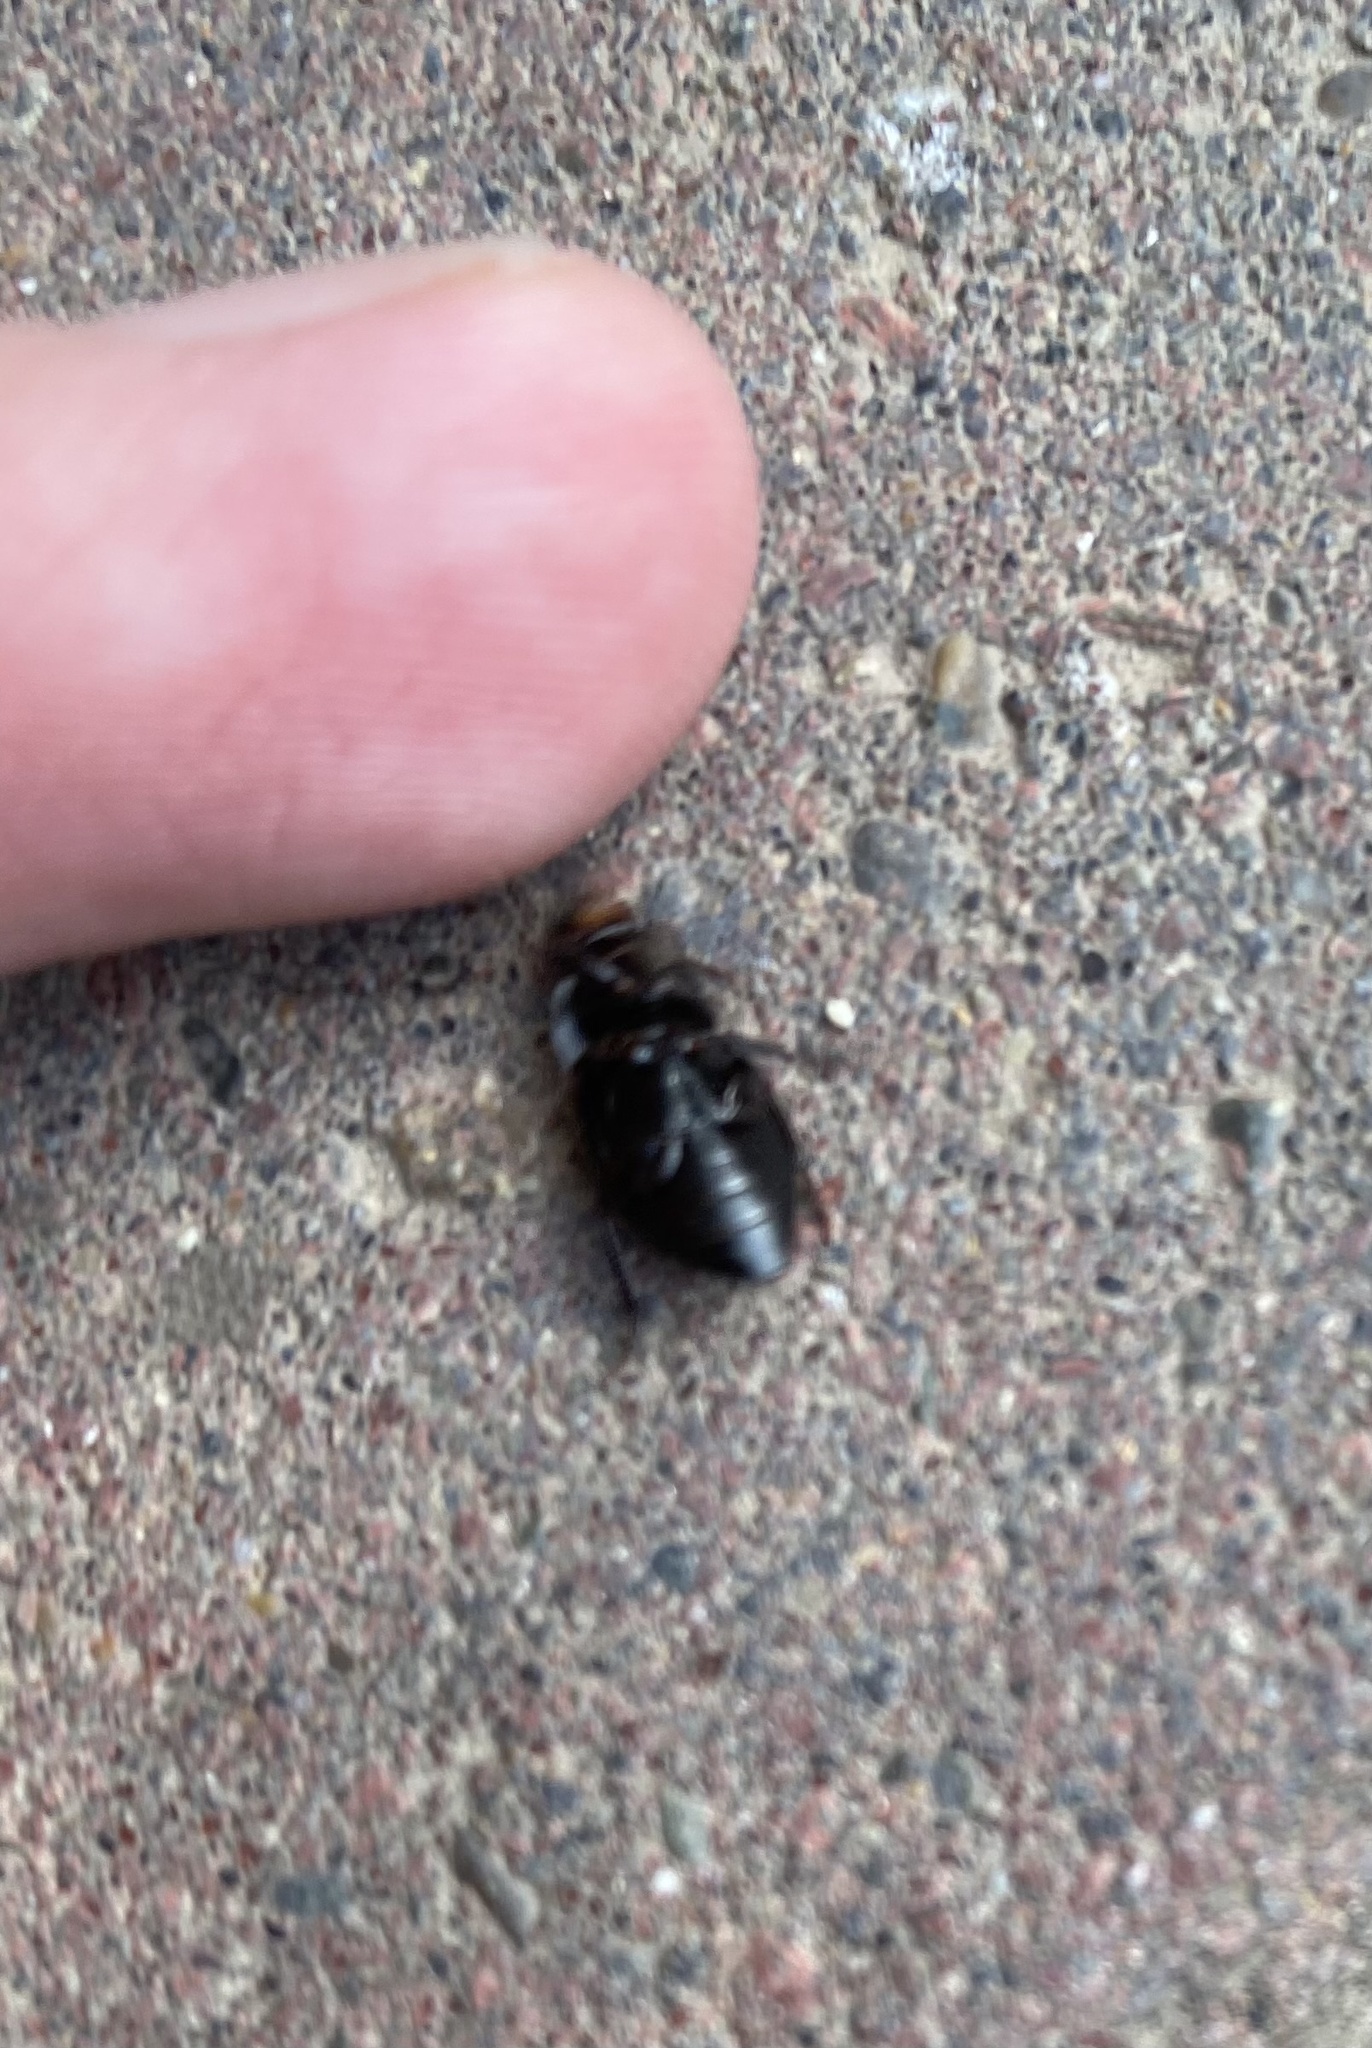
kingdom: Animalia
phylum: Arthropoda
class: Insecta
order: Coleoptera
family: Carabidae
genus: Harpalus
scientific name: Harpalus
